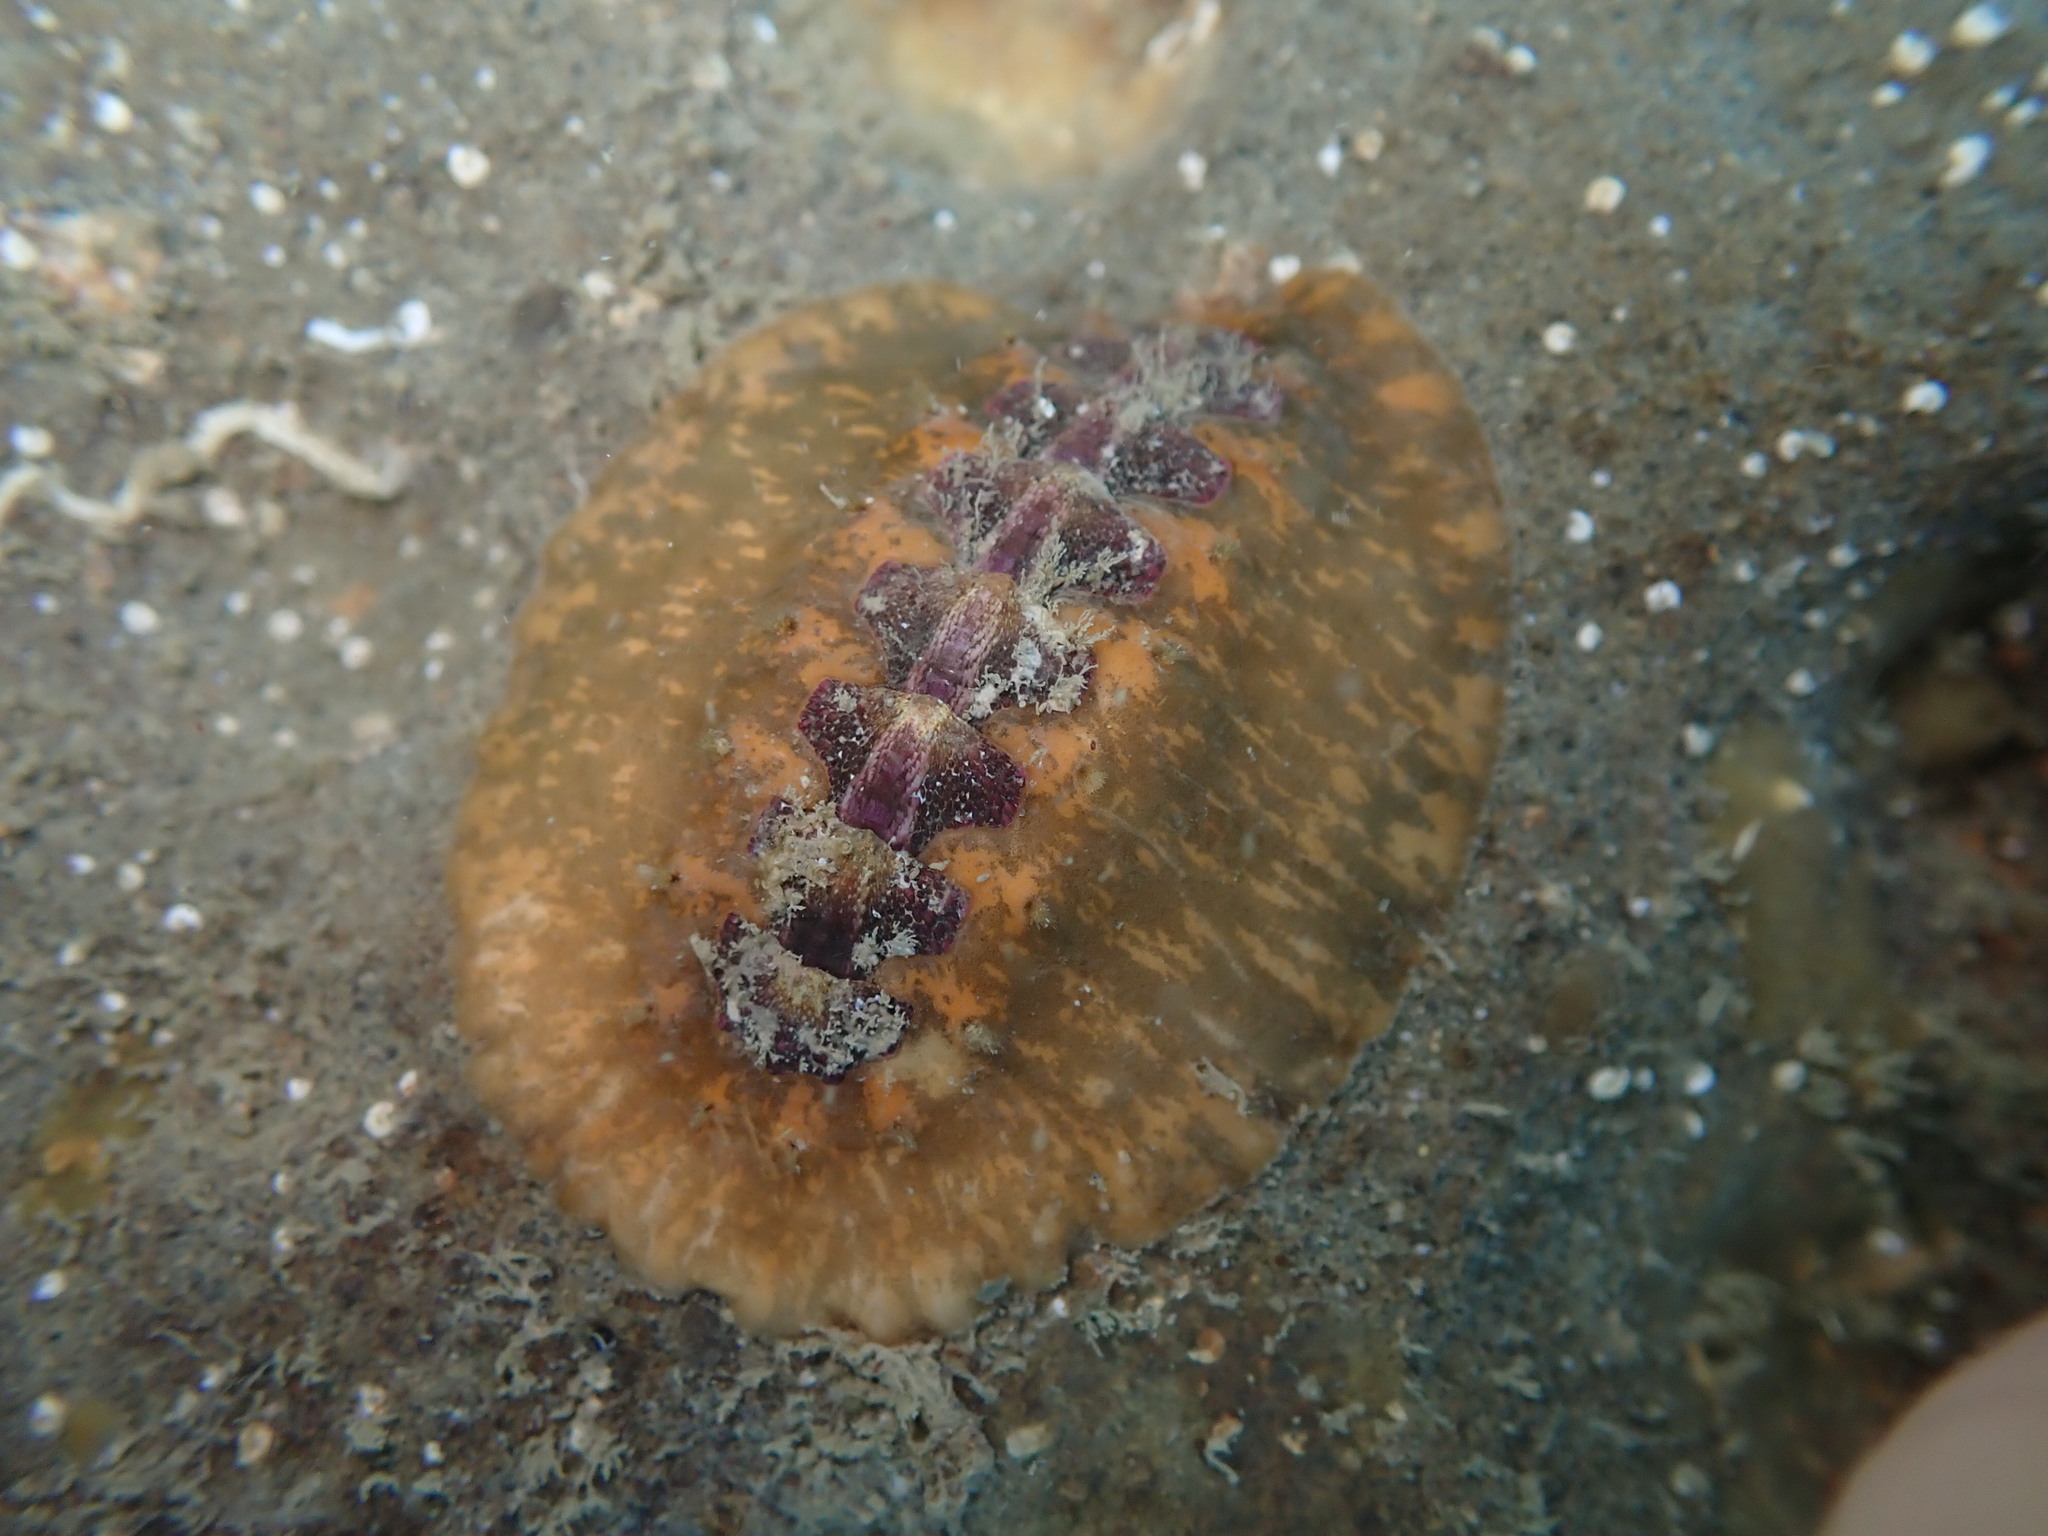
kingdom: Animalia
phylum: Mollusca
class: Polyplacophora
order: Chitonida
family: Acanthochitonidae
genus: Notoplax
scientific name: Notoplax violacea
